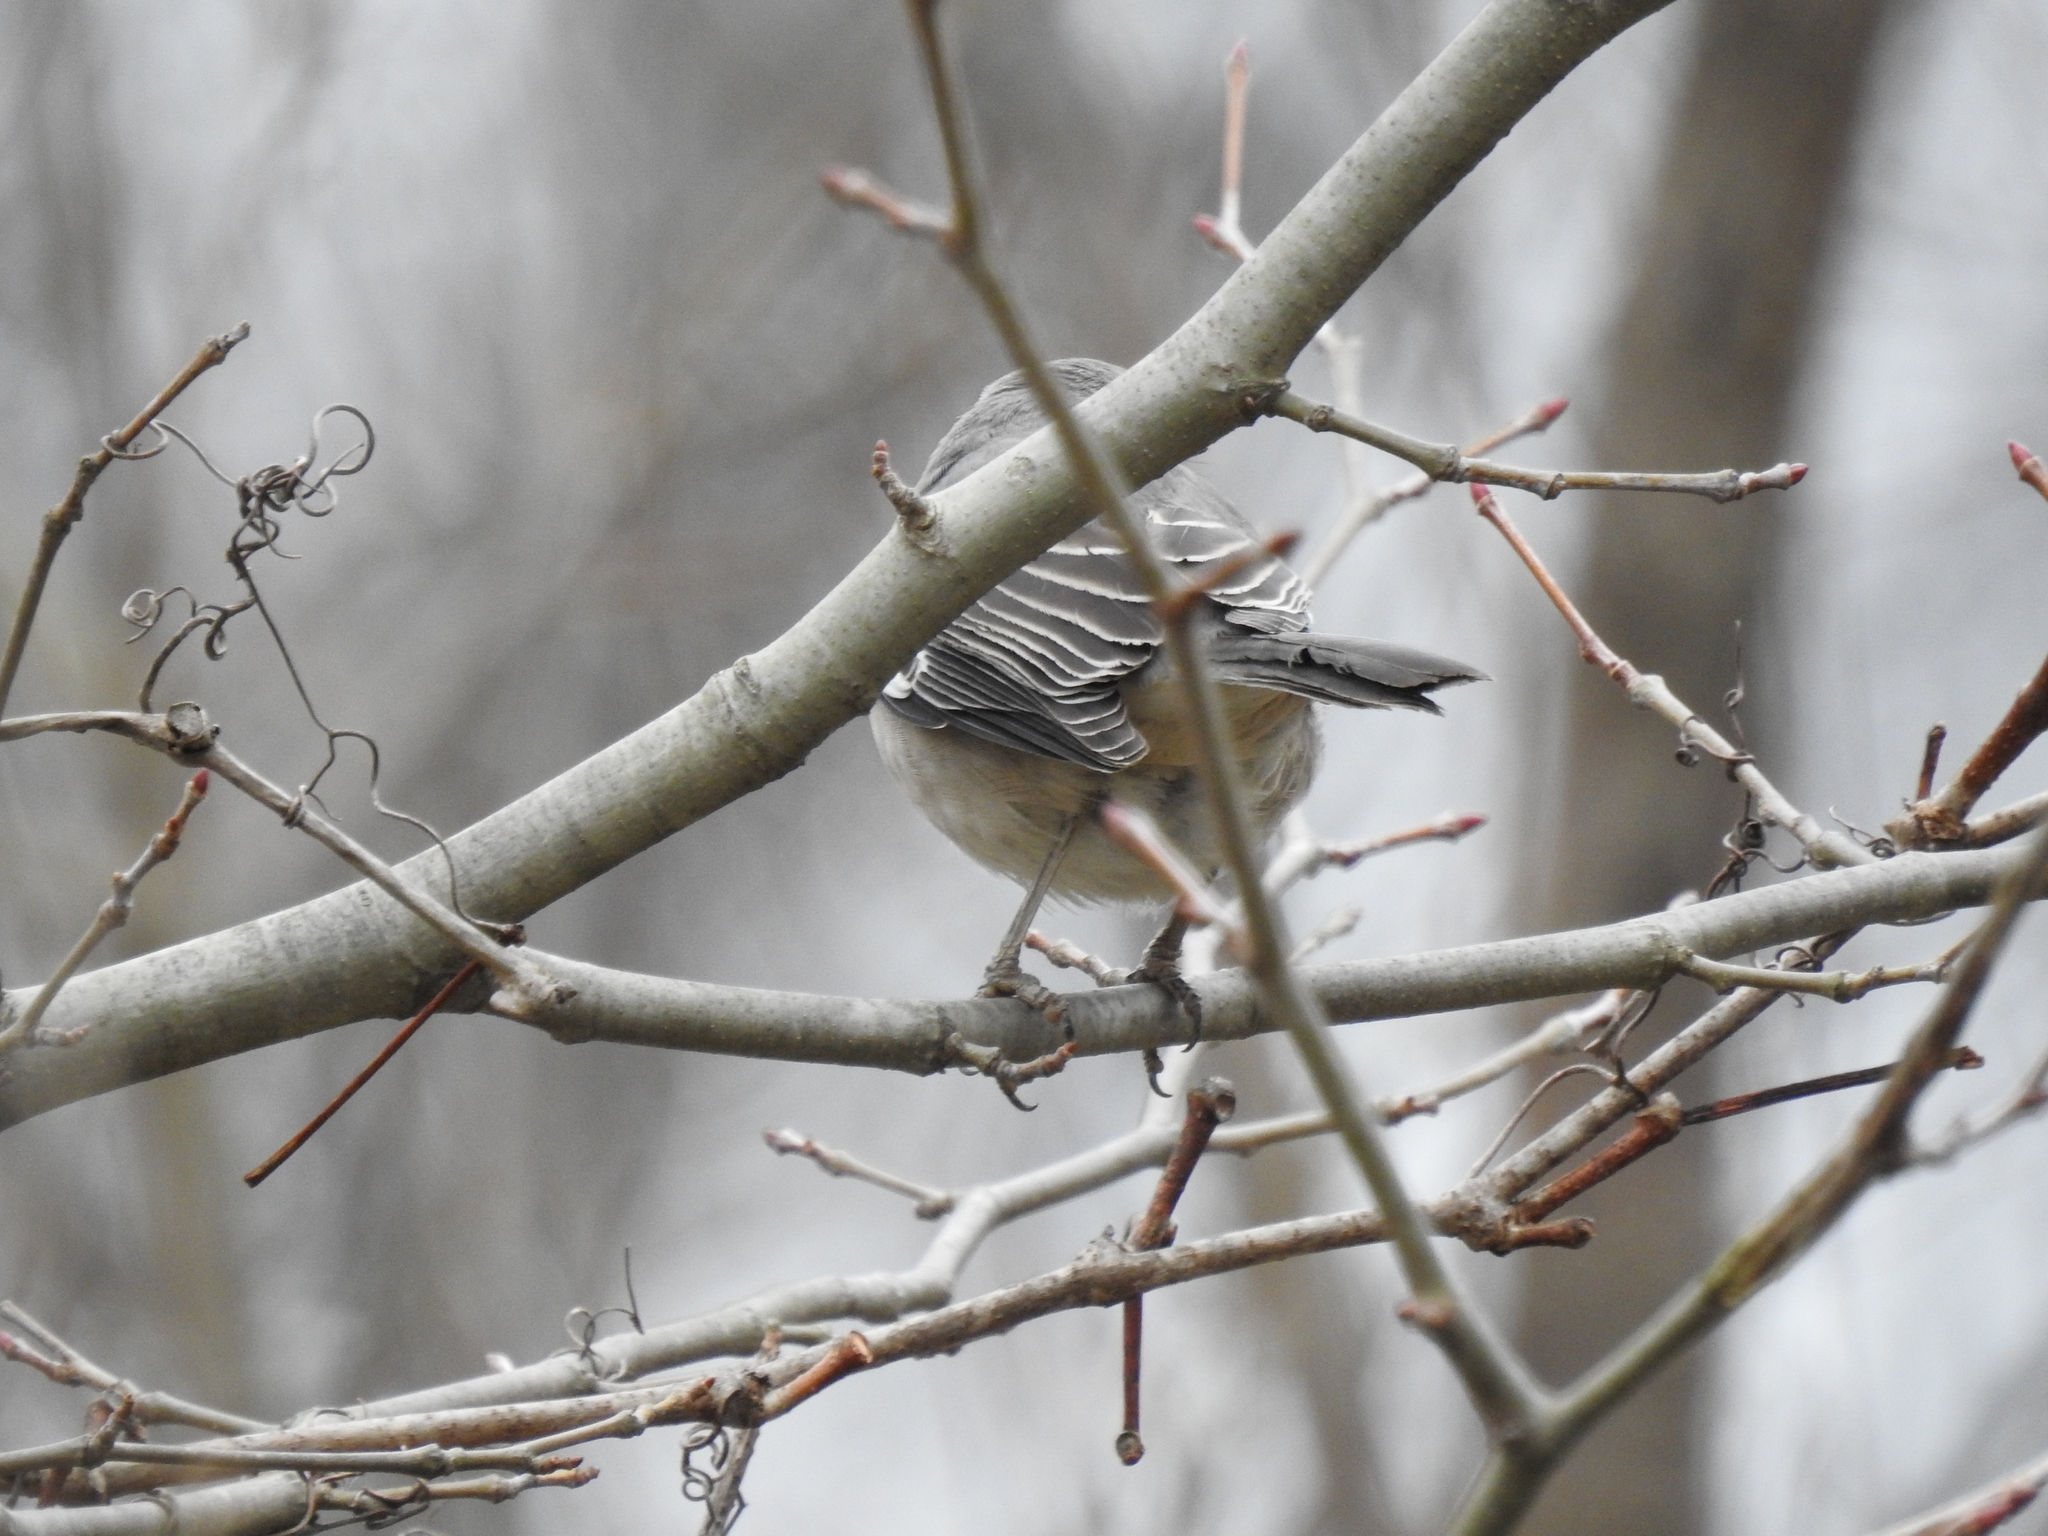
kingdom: Animalia
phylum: Chordata
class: Aves
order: Passeriformes
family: Mimidae
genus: Mimus
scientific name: Mimus polyglottos
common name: Northern mockingbird
